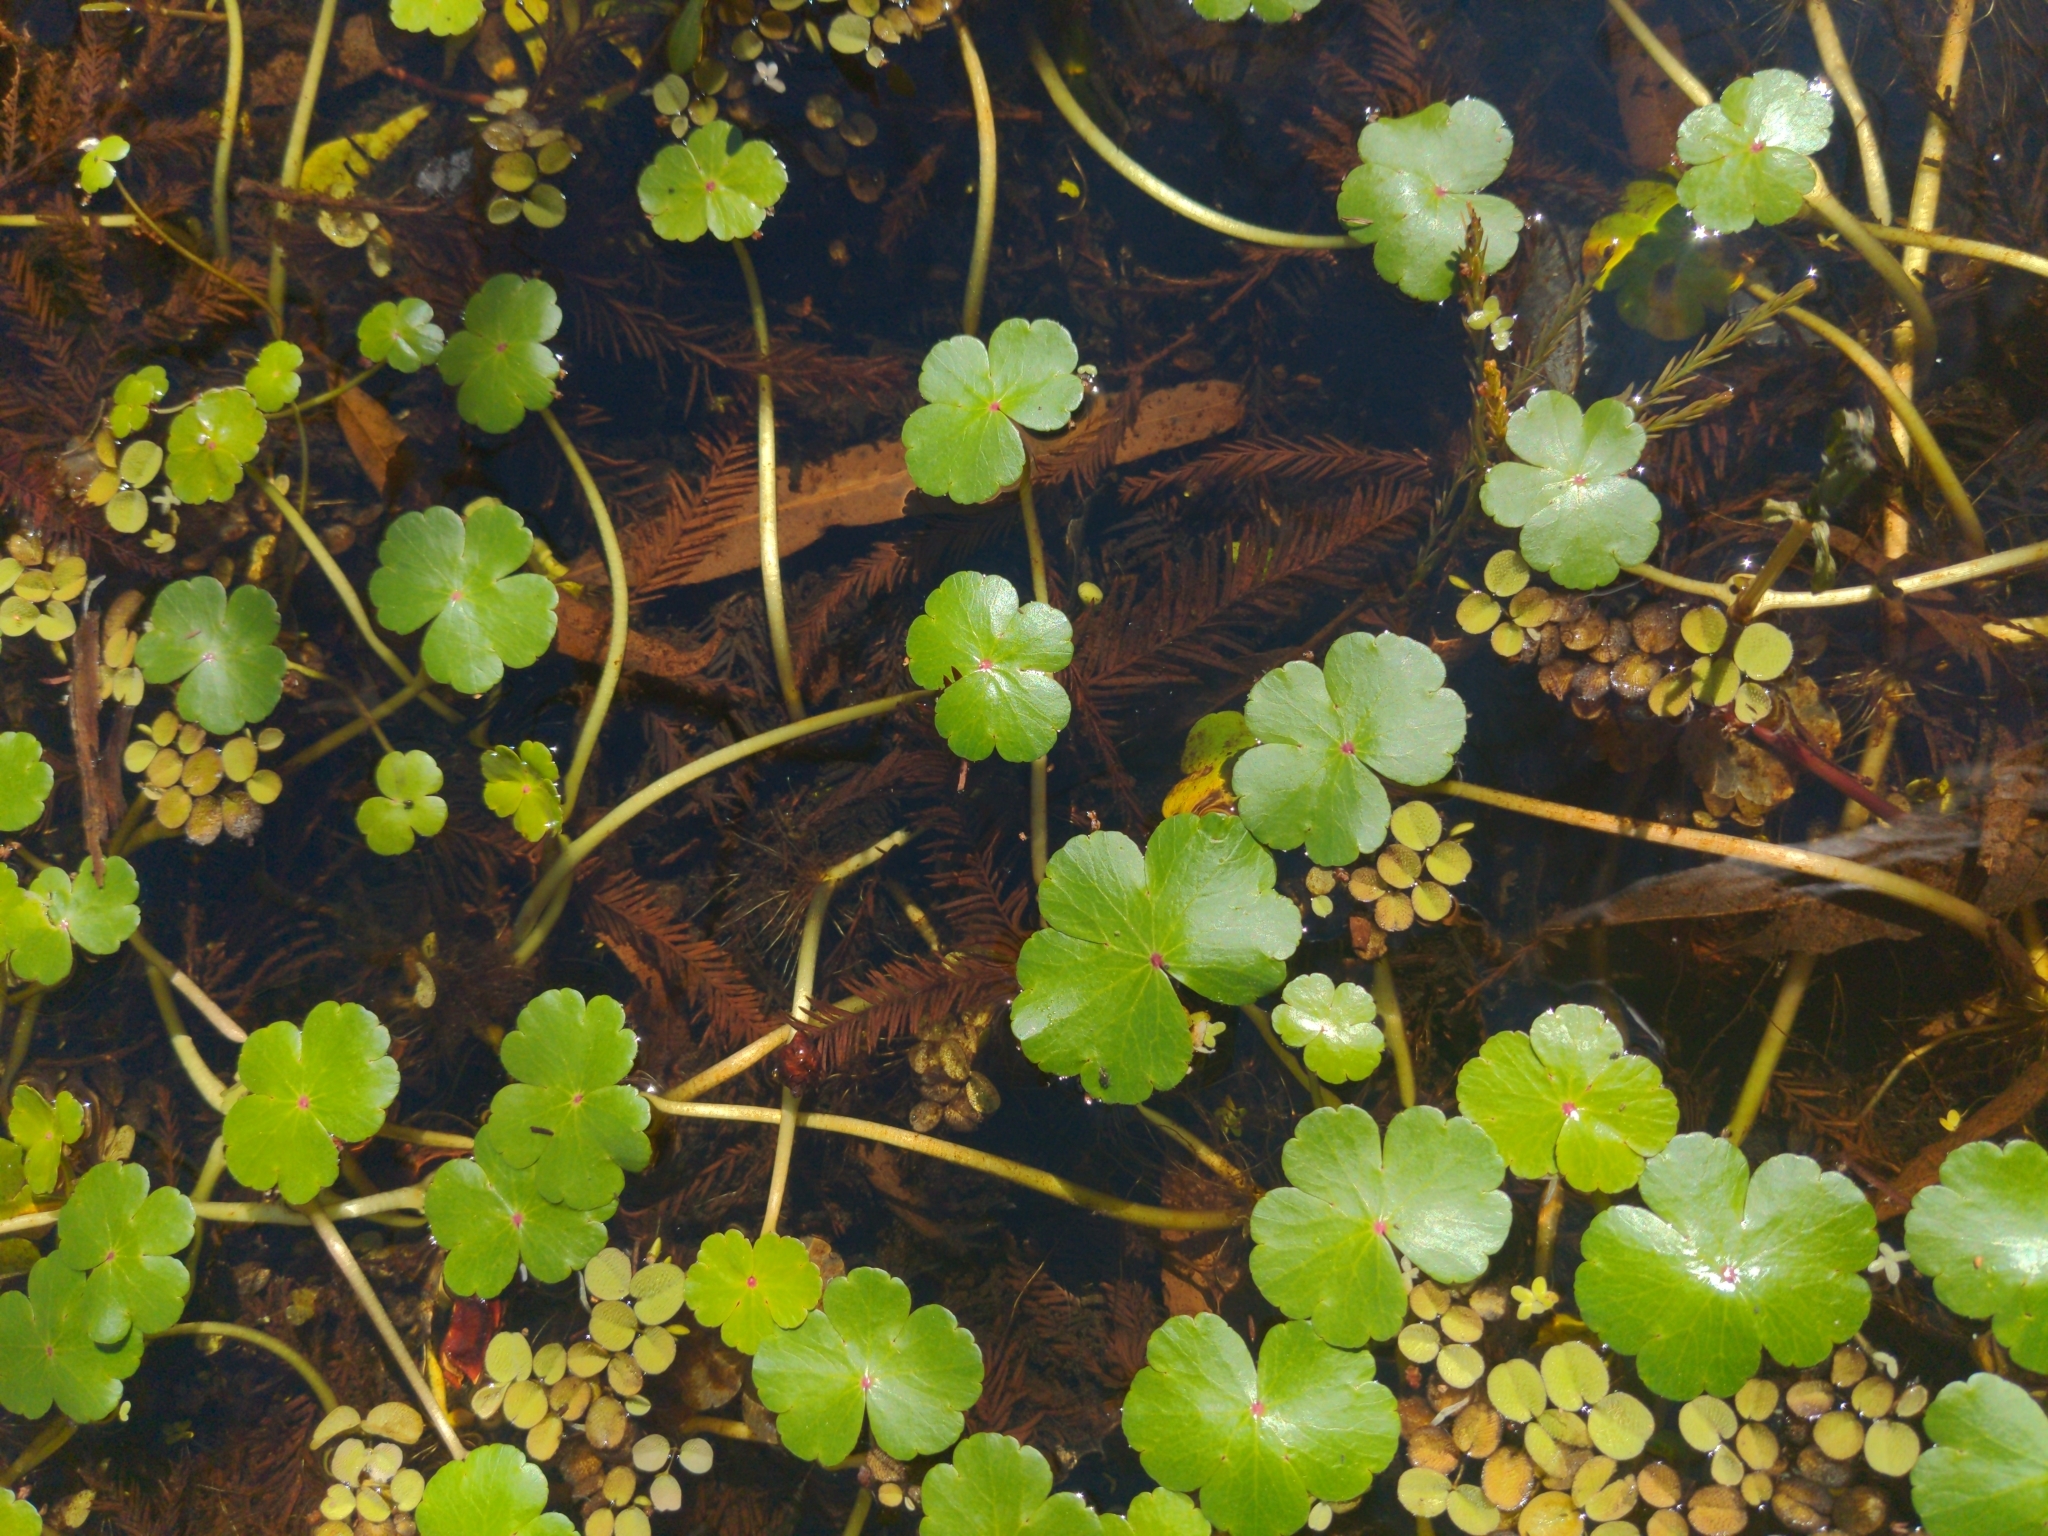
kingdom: Plantae
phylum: Tracheophyta
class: Magnoliopsida
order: Apiales
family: Araliaceae
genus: Hydrocotyle
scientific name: Hydrocotyle ranunculoides
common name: Floating pennywort
